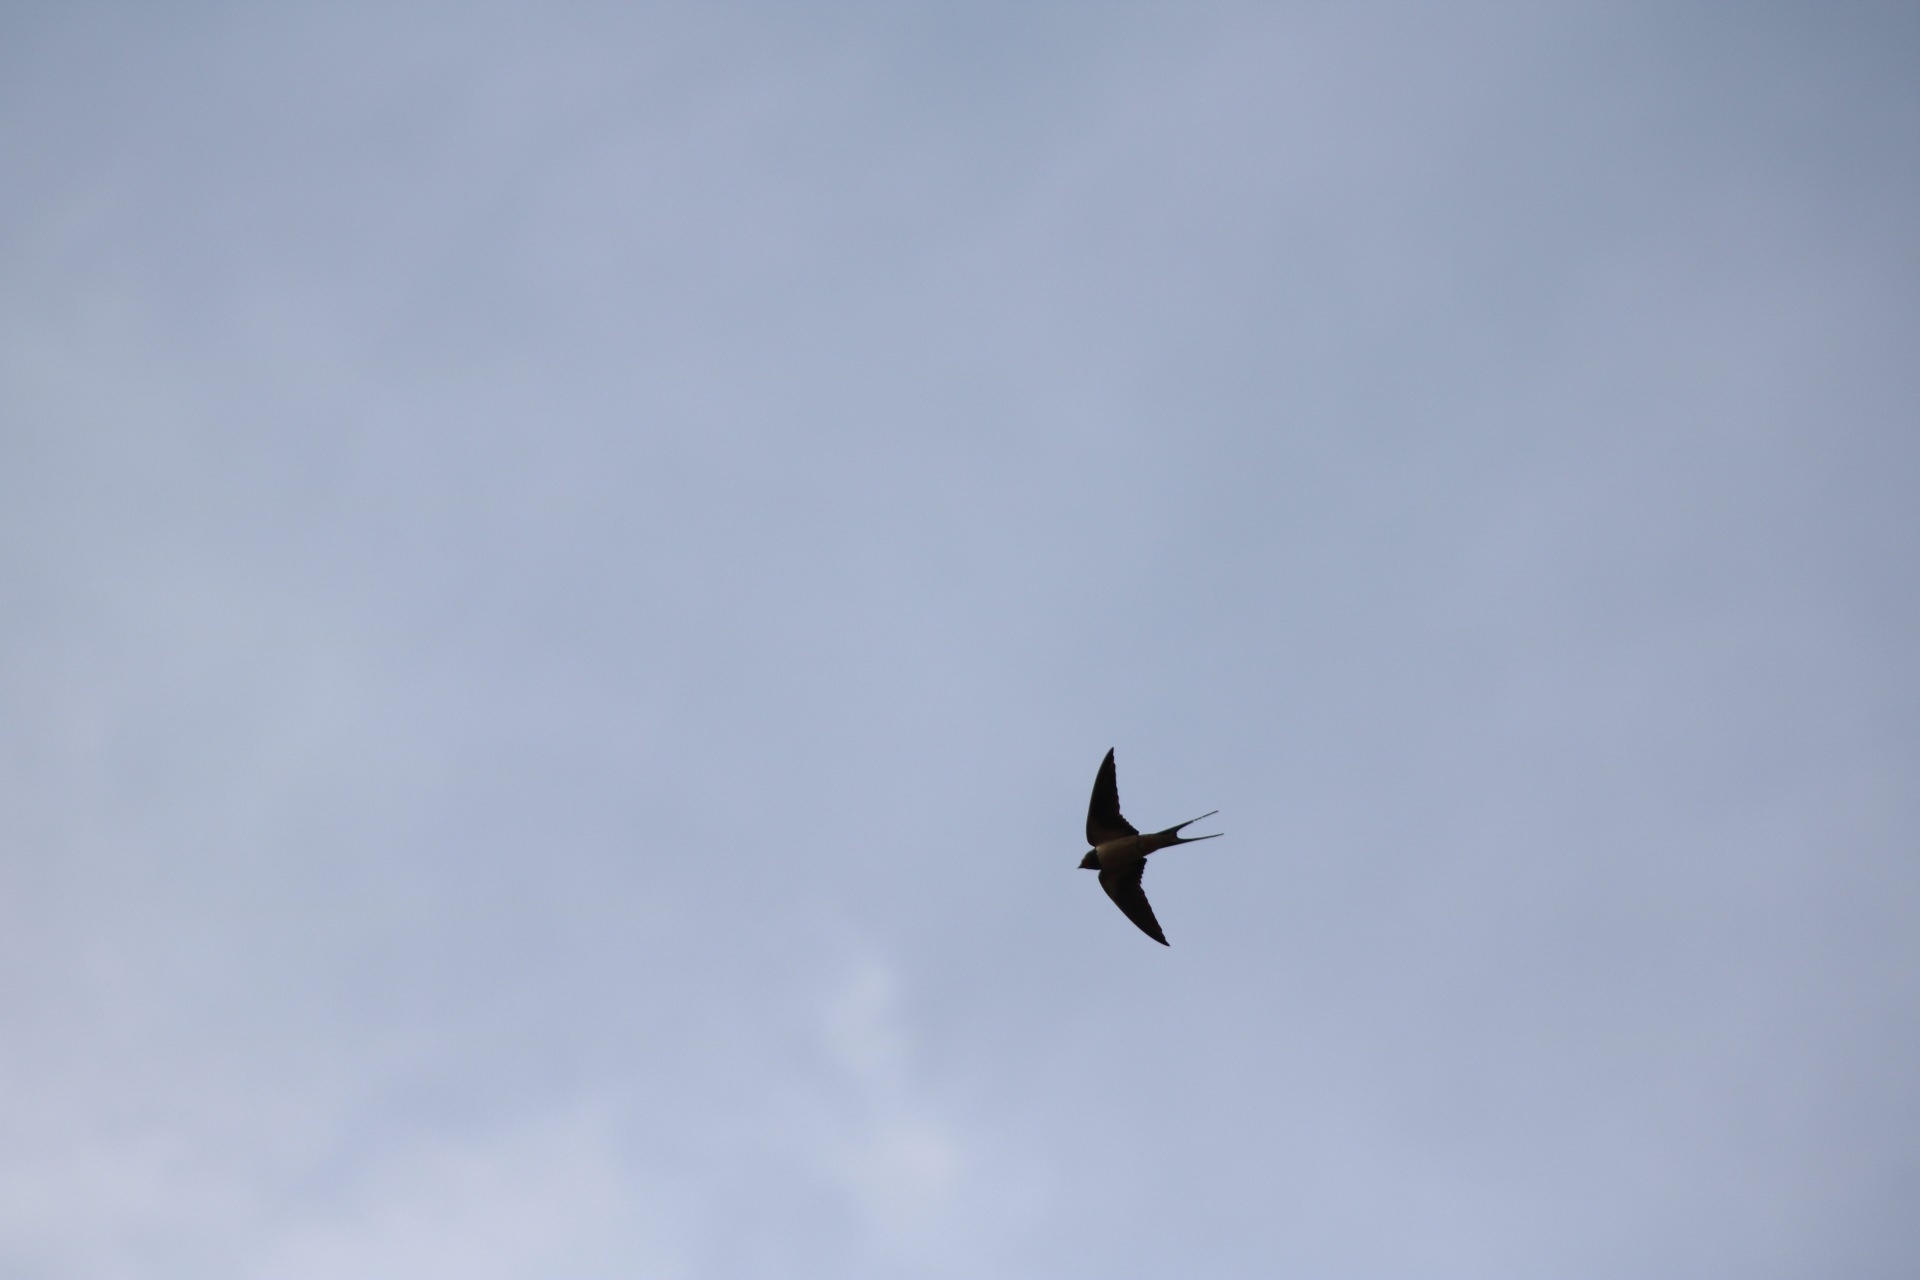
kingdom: Animalia
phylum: Chordata
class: Aves
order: Passeriformes
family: Hirundinidae
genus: Hirundo
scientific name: Hirundo rustica
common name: Barn swallow
